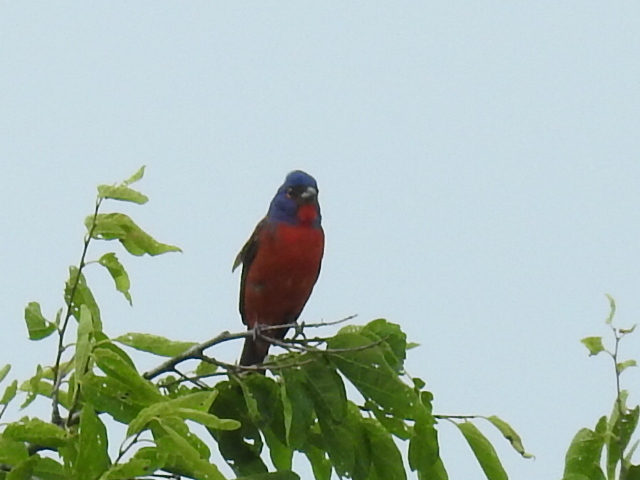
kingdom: Animalia
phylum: Chordata
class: Aves
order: Passeriformes
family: Cardinalidae
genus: Passerina
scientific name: Passerina ciris
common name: Painted bunting
